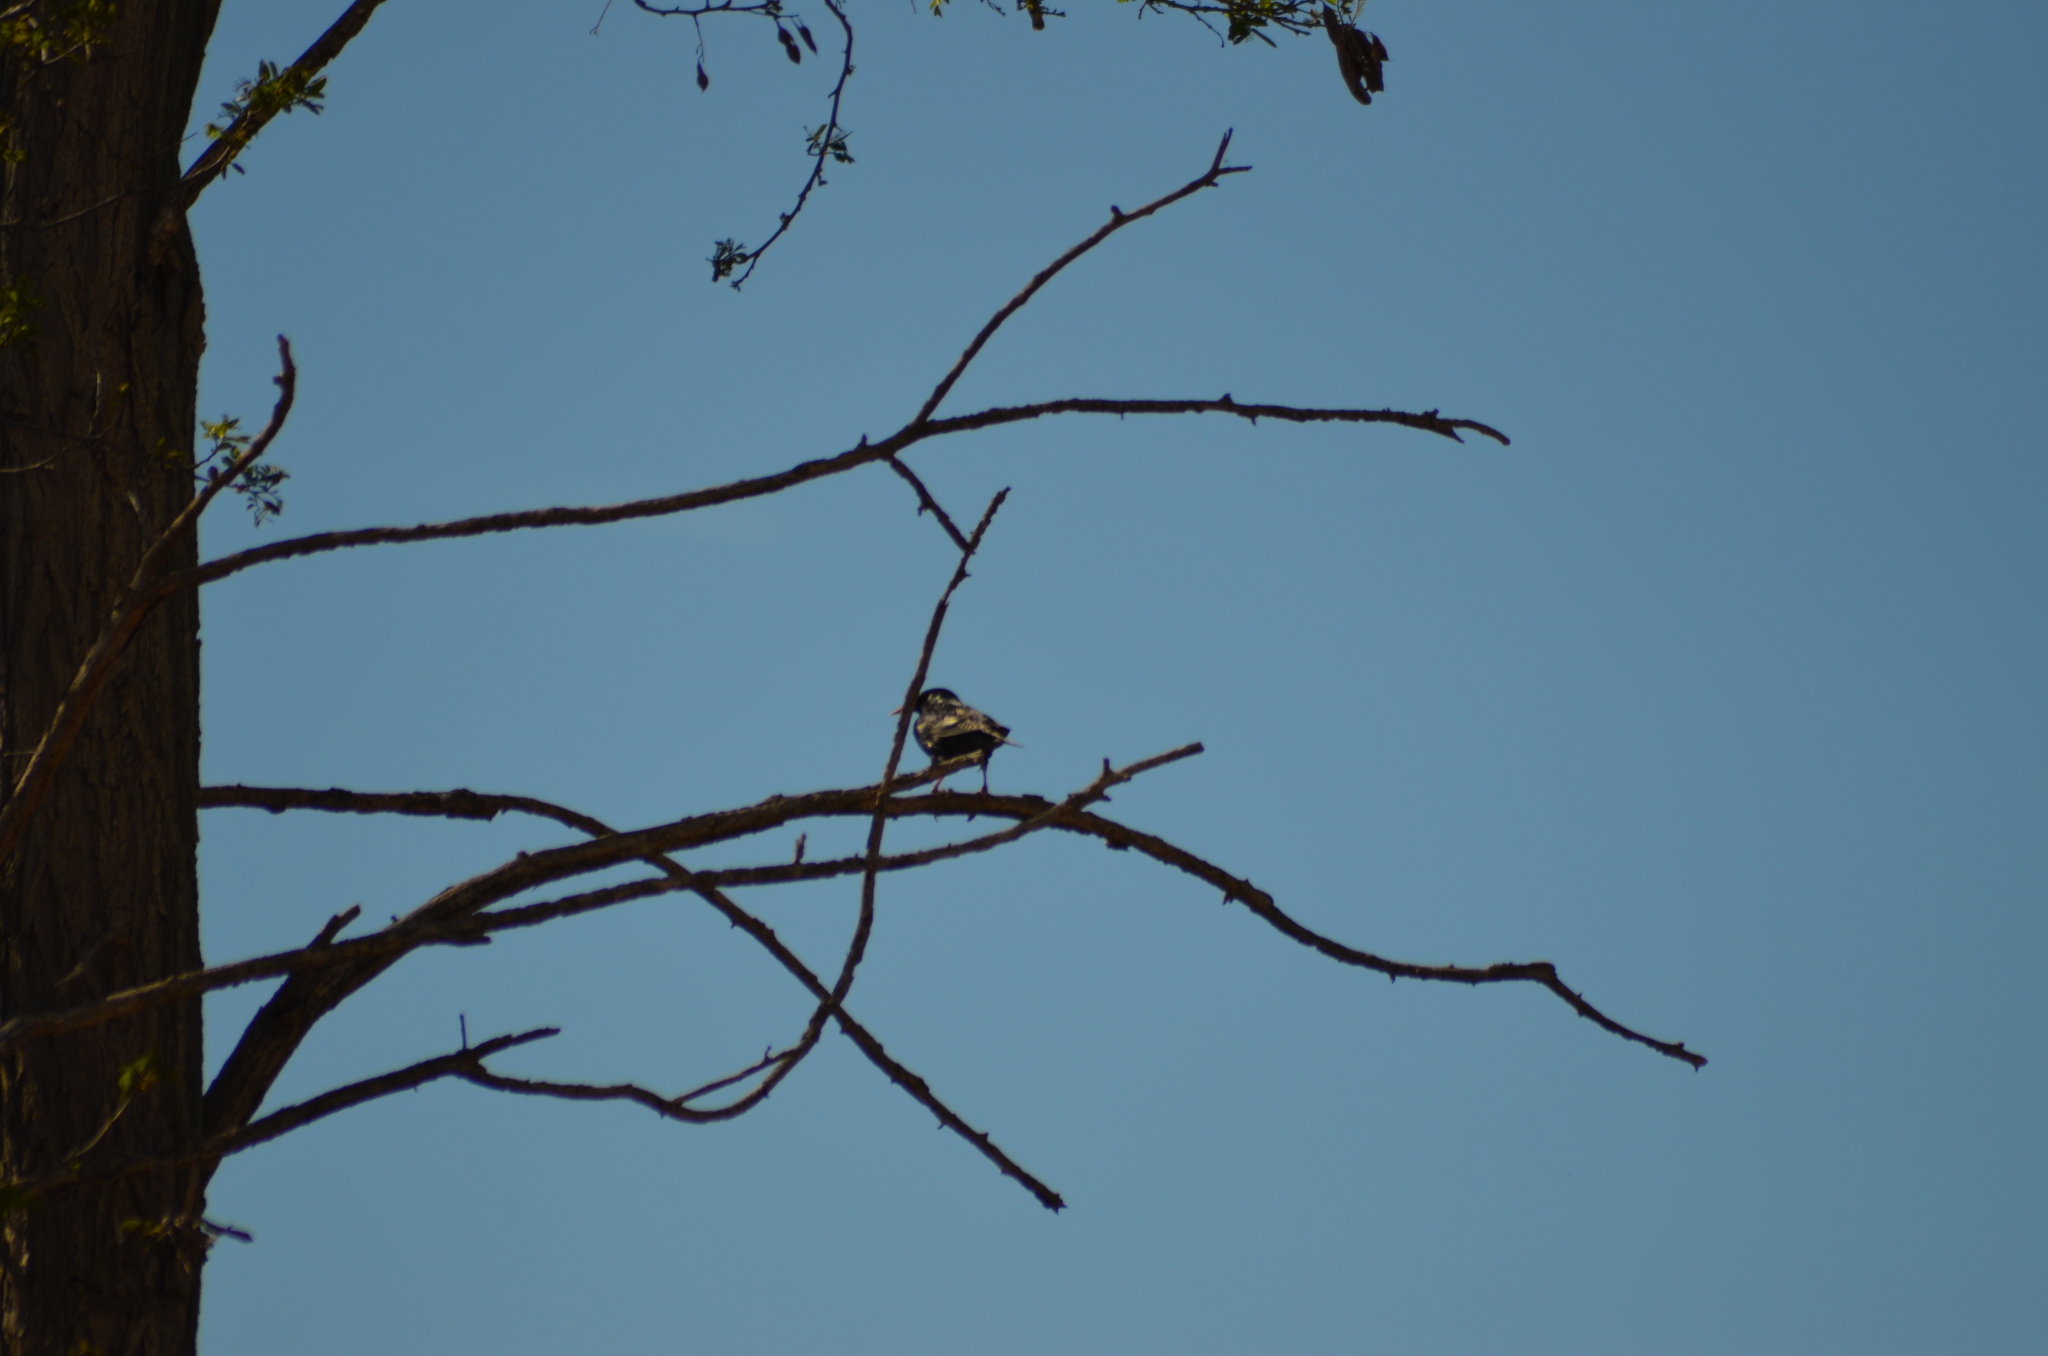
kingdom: Animalia
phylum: Chordata
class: Aves
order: Passeriformes
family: Sturnidae
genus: Sturnus
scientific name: Sturnus vulgaris
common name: Common starling
